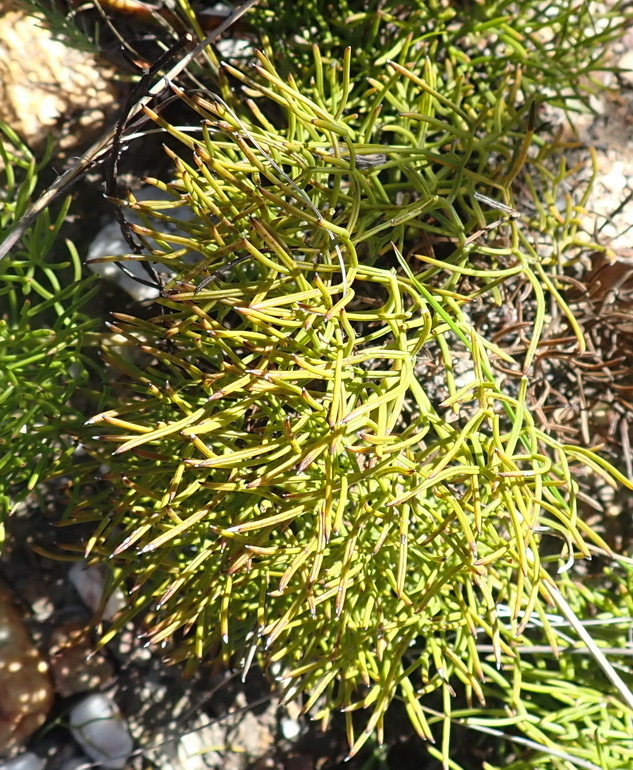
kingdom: Plantae
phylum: Tracheophyta
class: Magnoliopsida
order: Apiales
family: Apiaceae
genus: Nanobubon
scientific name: Nanobubon strictum
